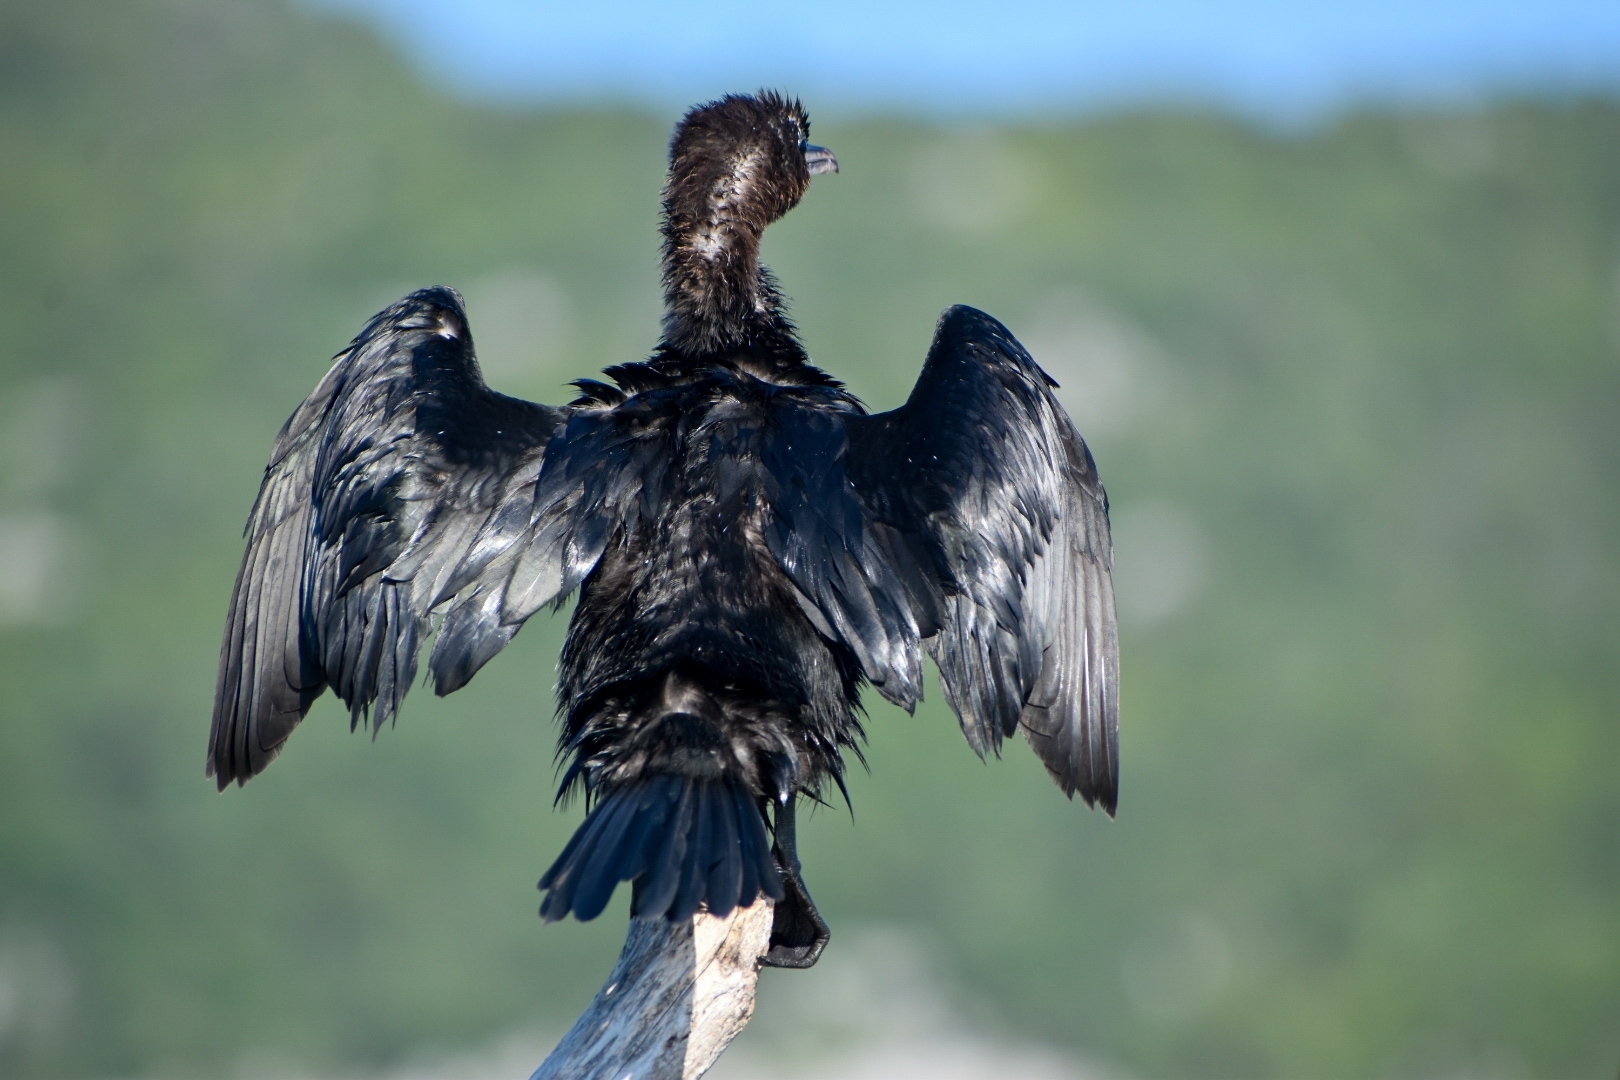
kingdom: Animalia
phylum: Chordata
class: Aves
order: Suliformes
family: Phalacrocoracidae
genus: Microcarbo
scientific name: Microcarbo pygmaeus
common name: Pygmy cormorant
